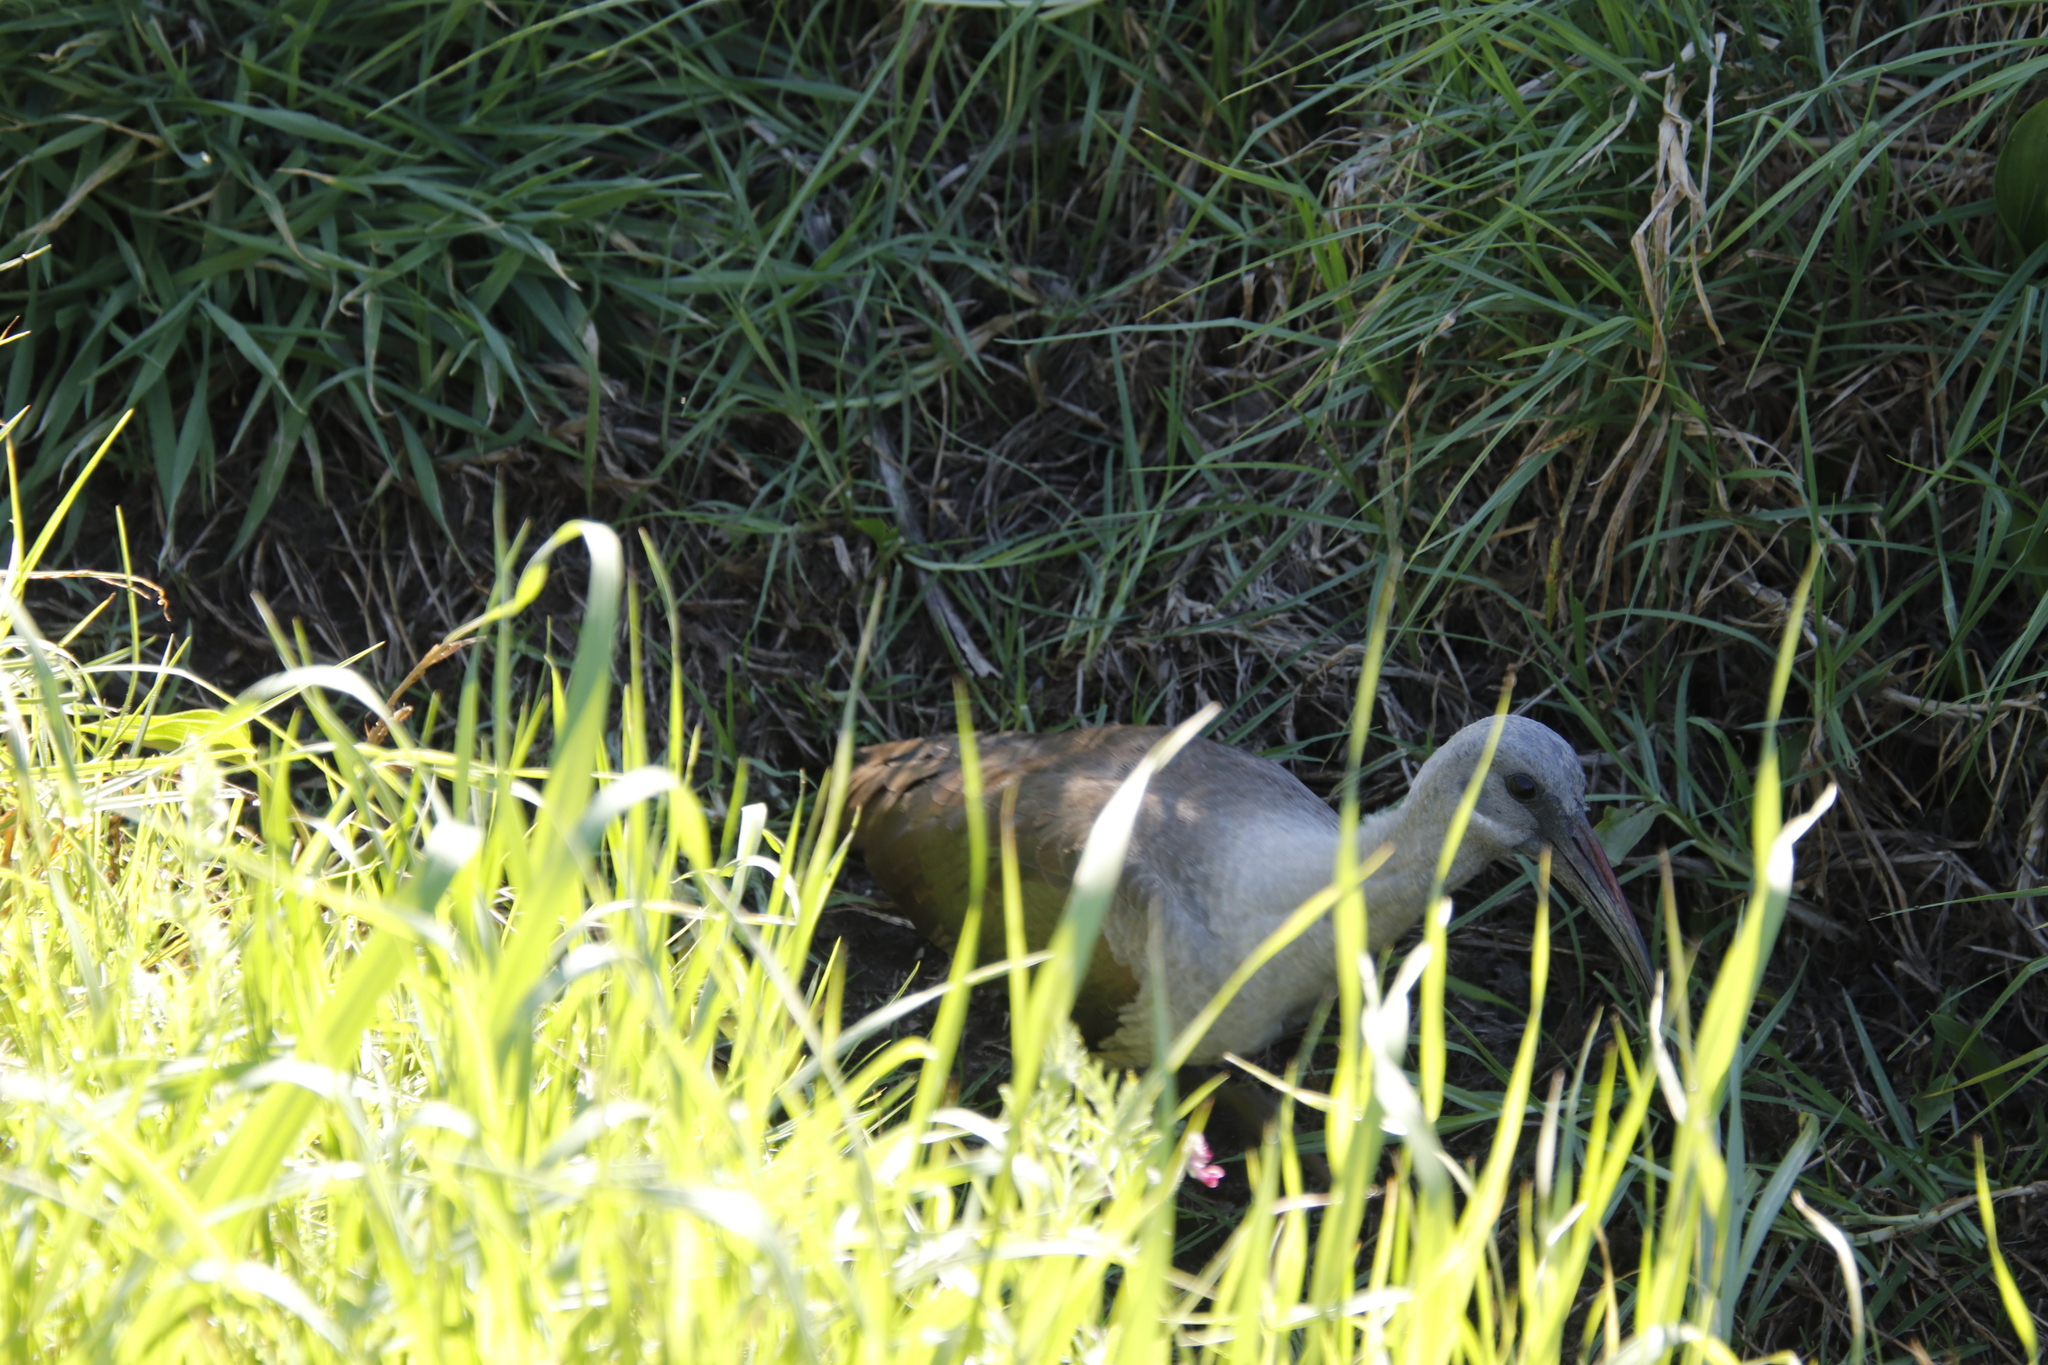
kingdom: Animalia
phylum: Chordata
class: Aves
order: Pelecaniformes
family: Threskiornithidae
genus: Bostrychia
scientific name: Bostrychia hagedash
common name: Hadada ibis
